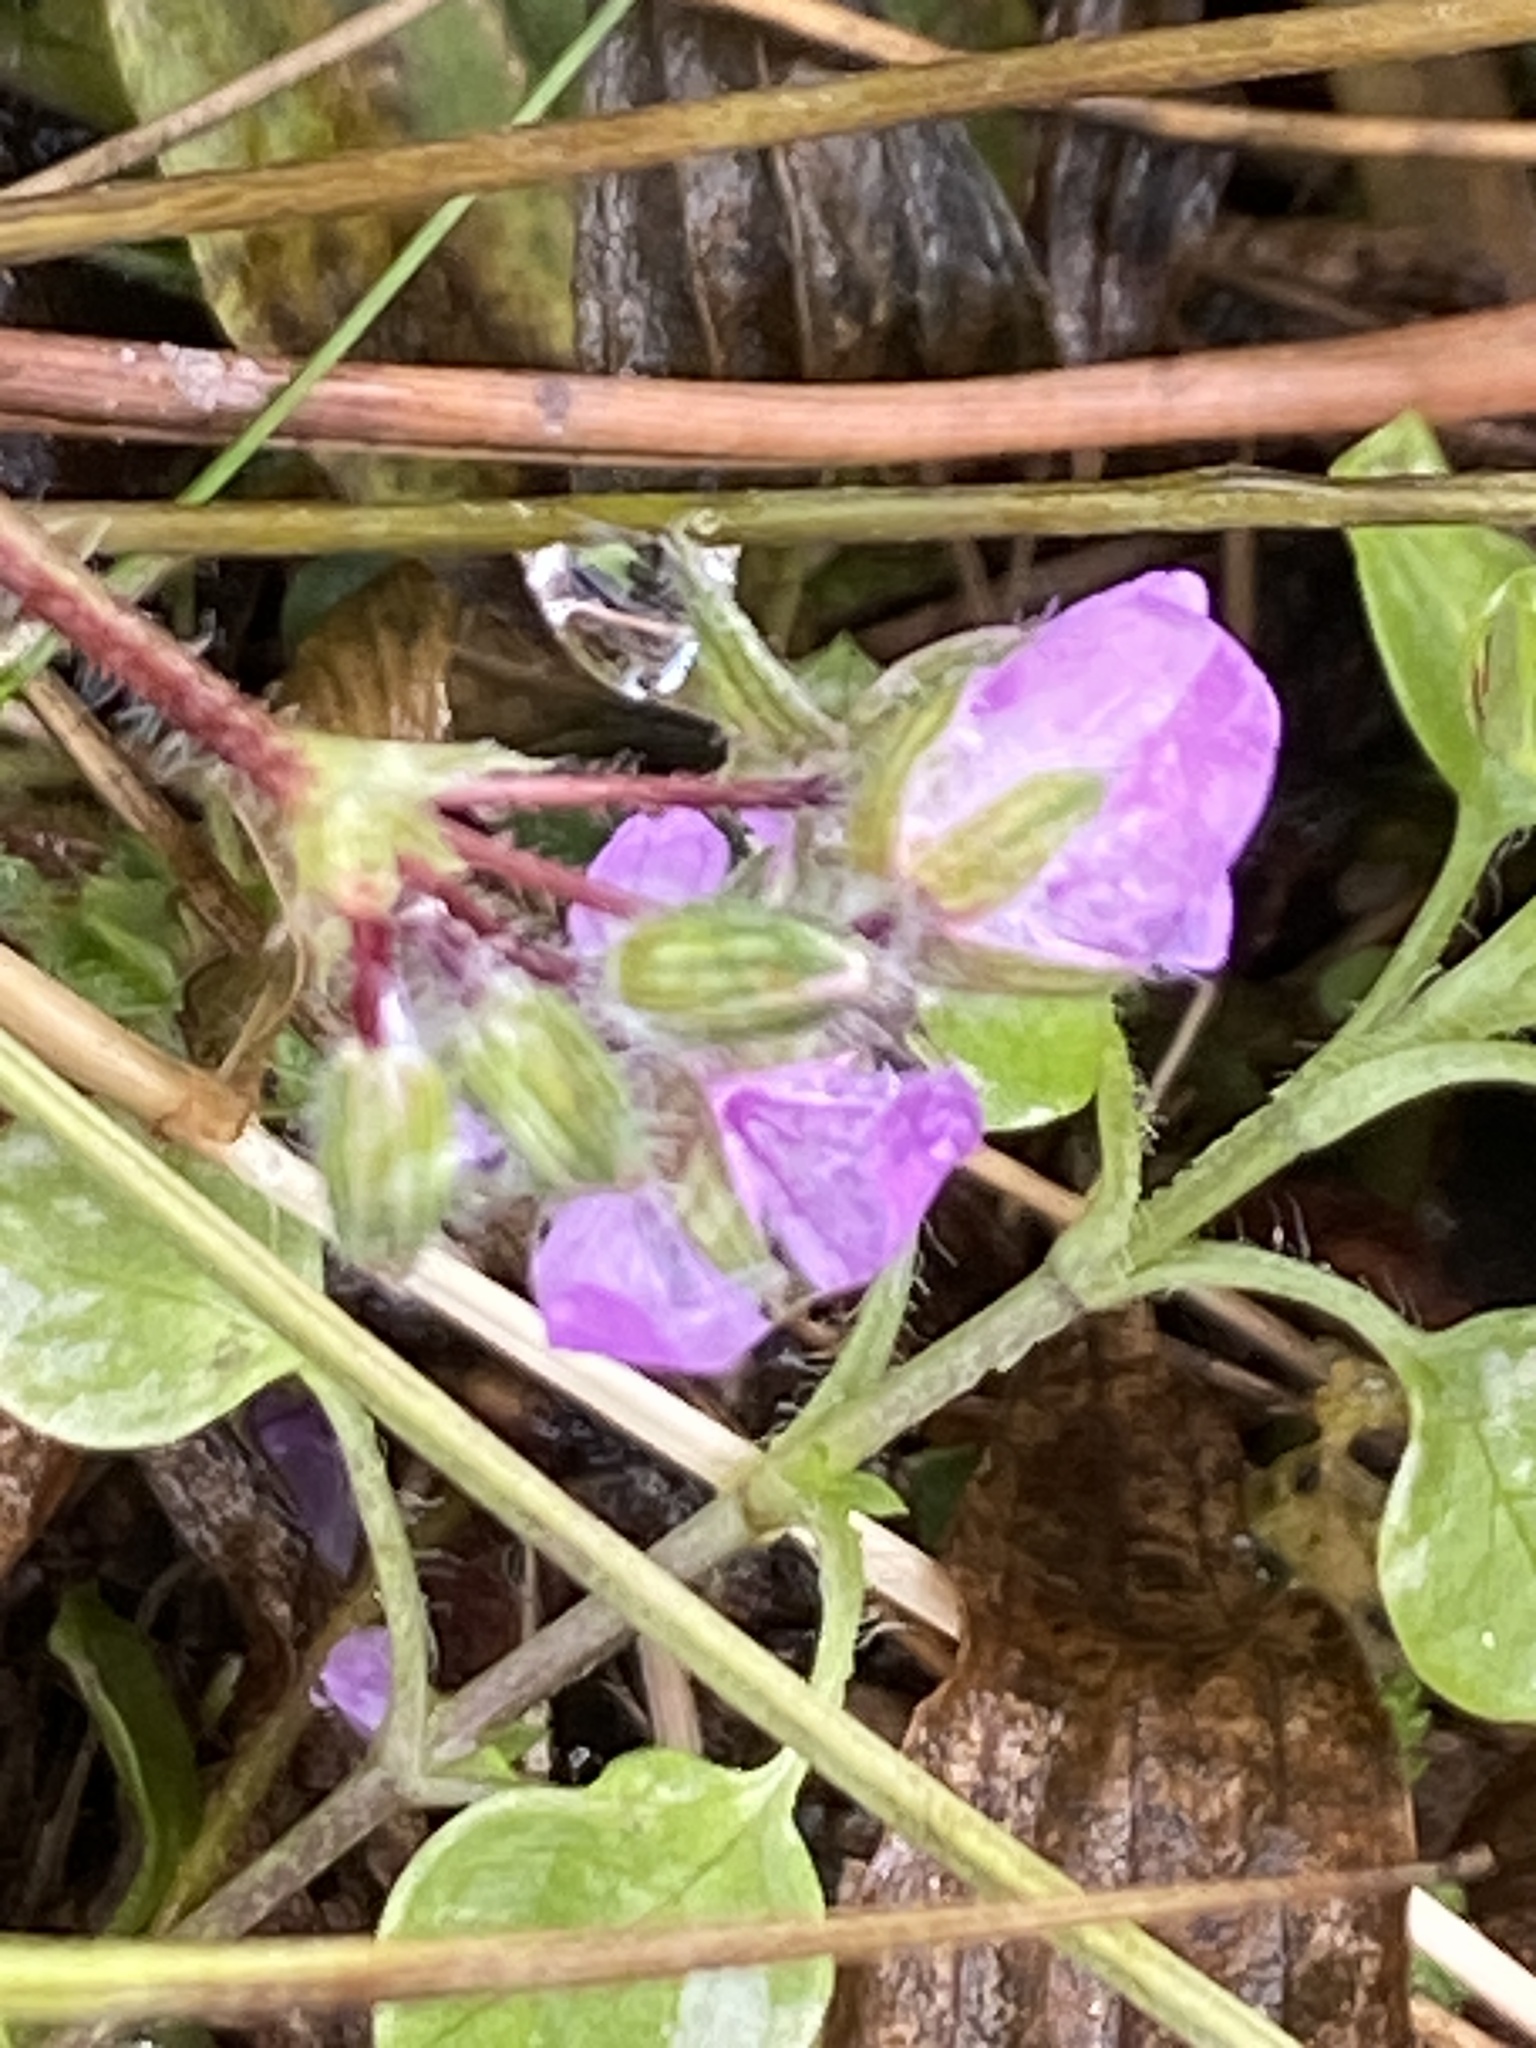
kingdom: Plantae
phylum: Tracheophyta
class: Magnoliopsida
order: Geraniales
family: Geraniaceae
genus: Erodium
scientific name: Erodium cicutarium
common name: Common stork's-bill
